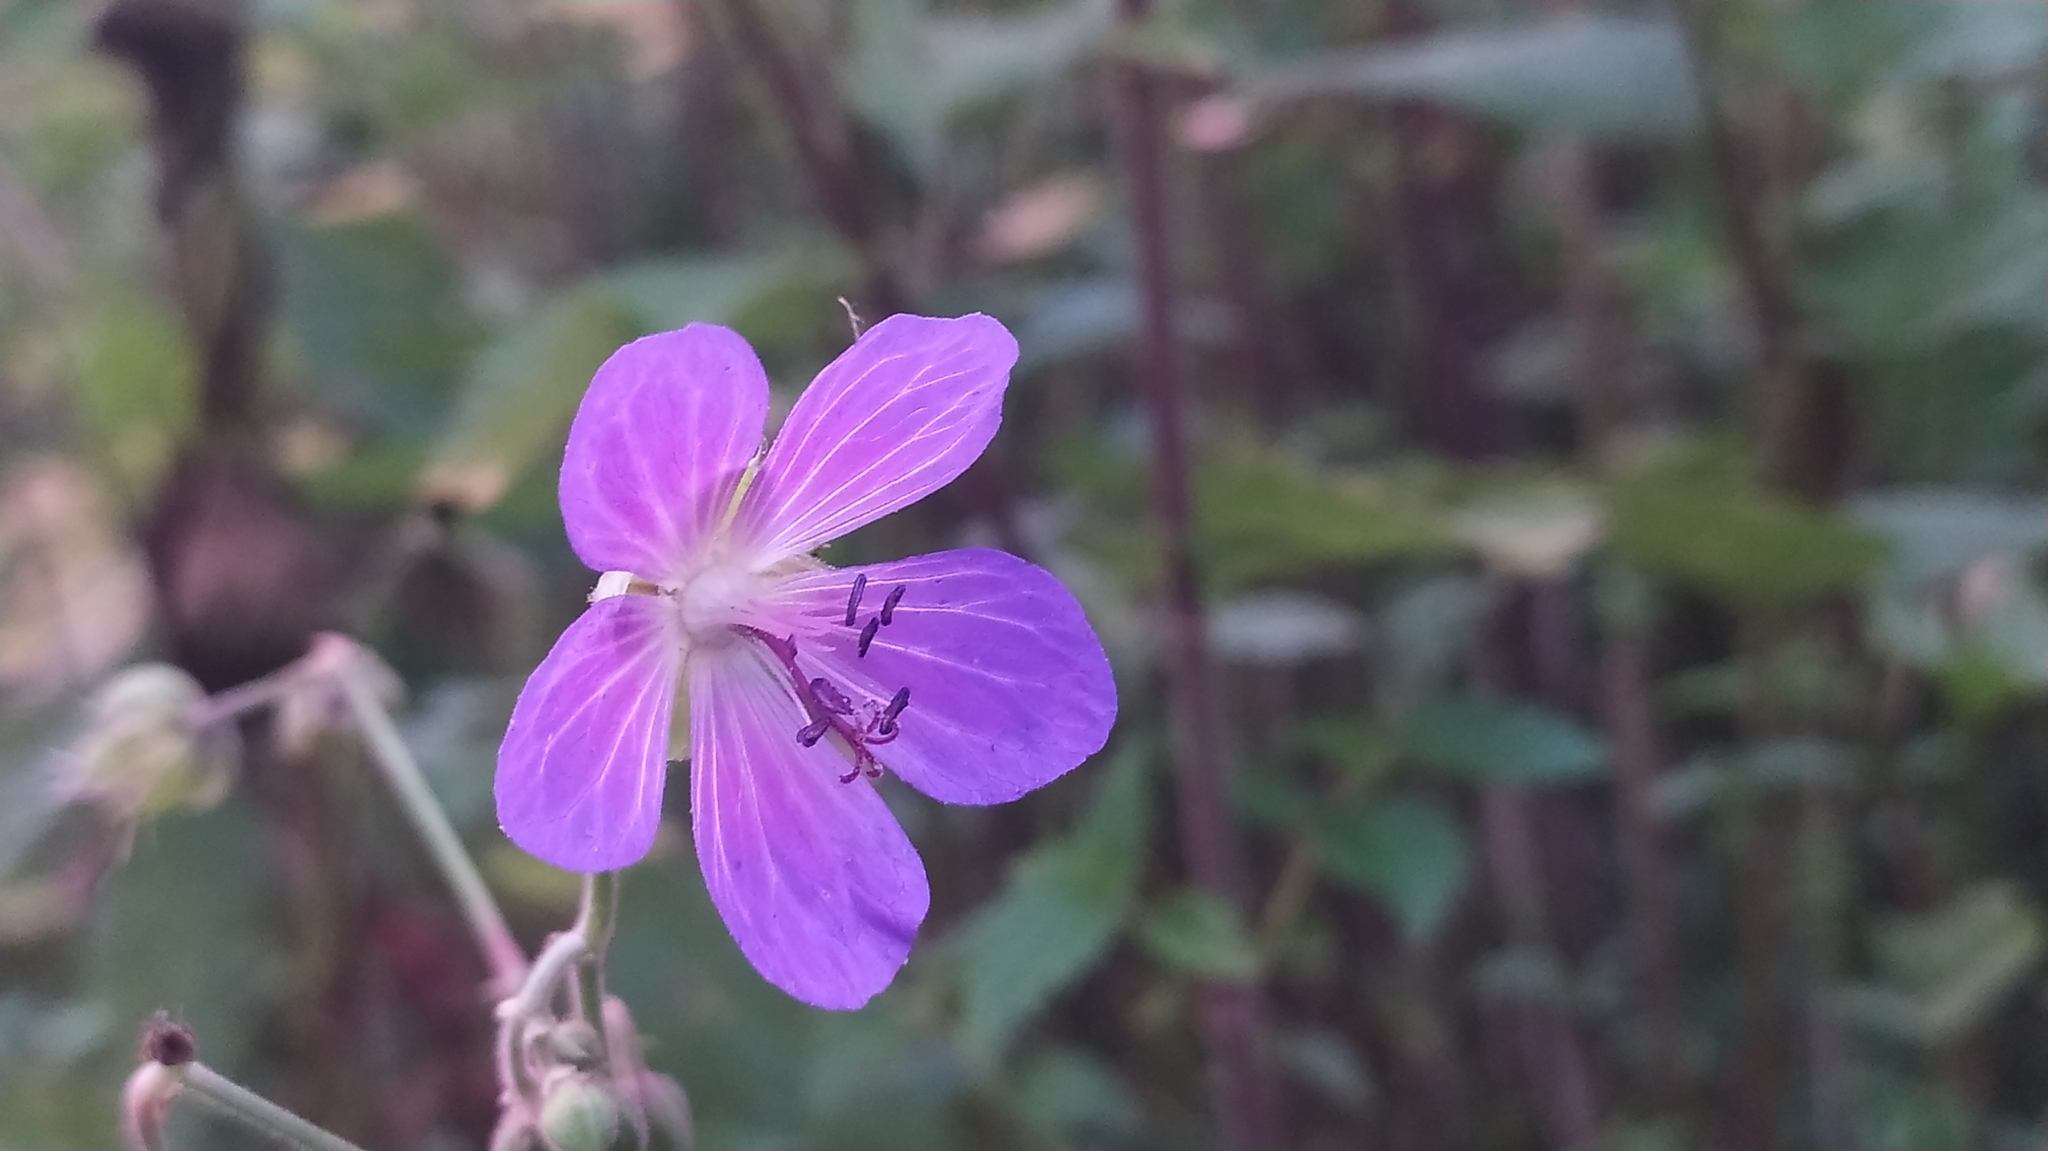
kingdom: Plantae
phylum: Tracheophyta
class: Magnoliopsida
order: Geraniales
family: Geraniaceae
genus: Geranium
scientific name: Geranium pratense
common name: Meadow crane's-bill
